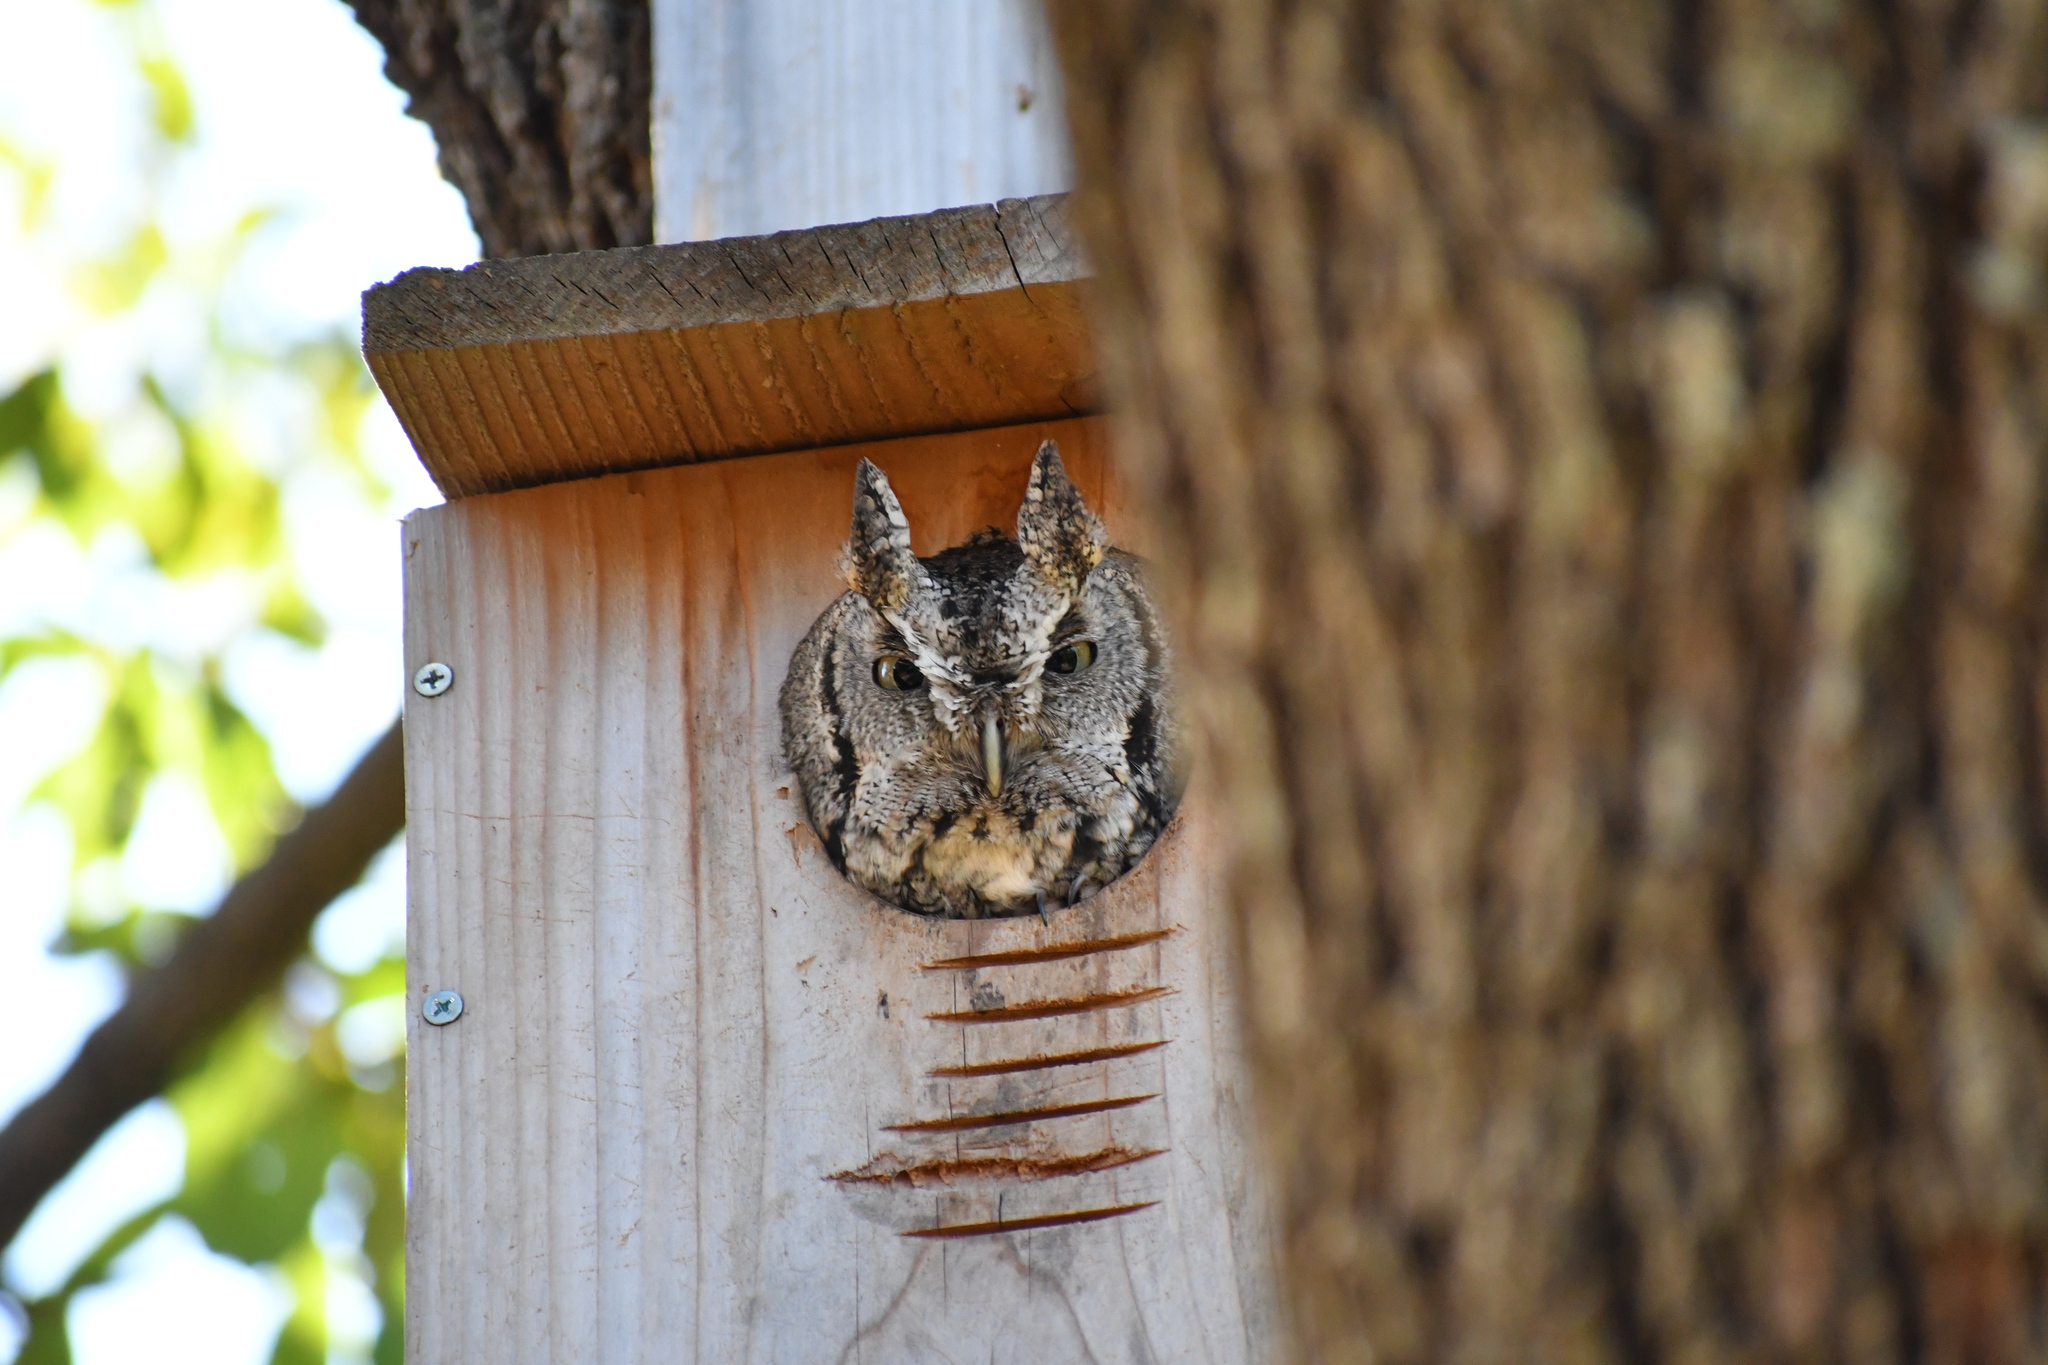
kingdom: Animalia
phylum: Chordata
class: Aves
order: Strigiformes
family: Strigidae
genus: Megascops
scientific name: Megascops asio
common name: Eastern screech-owl
